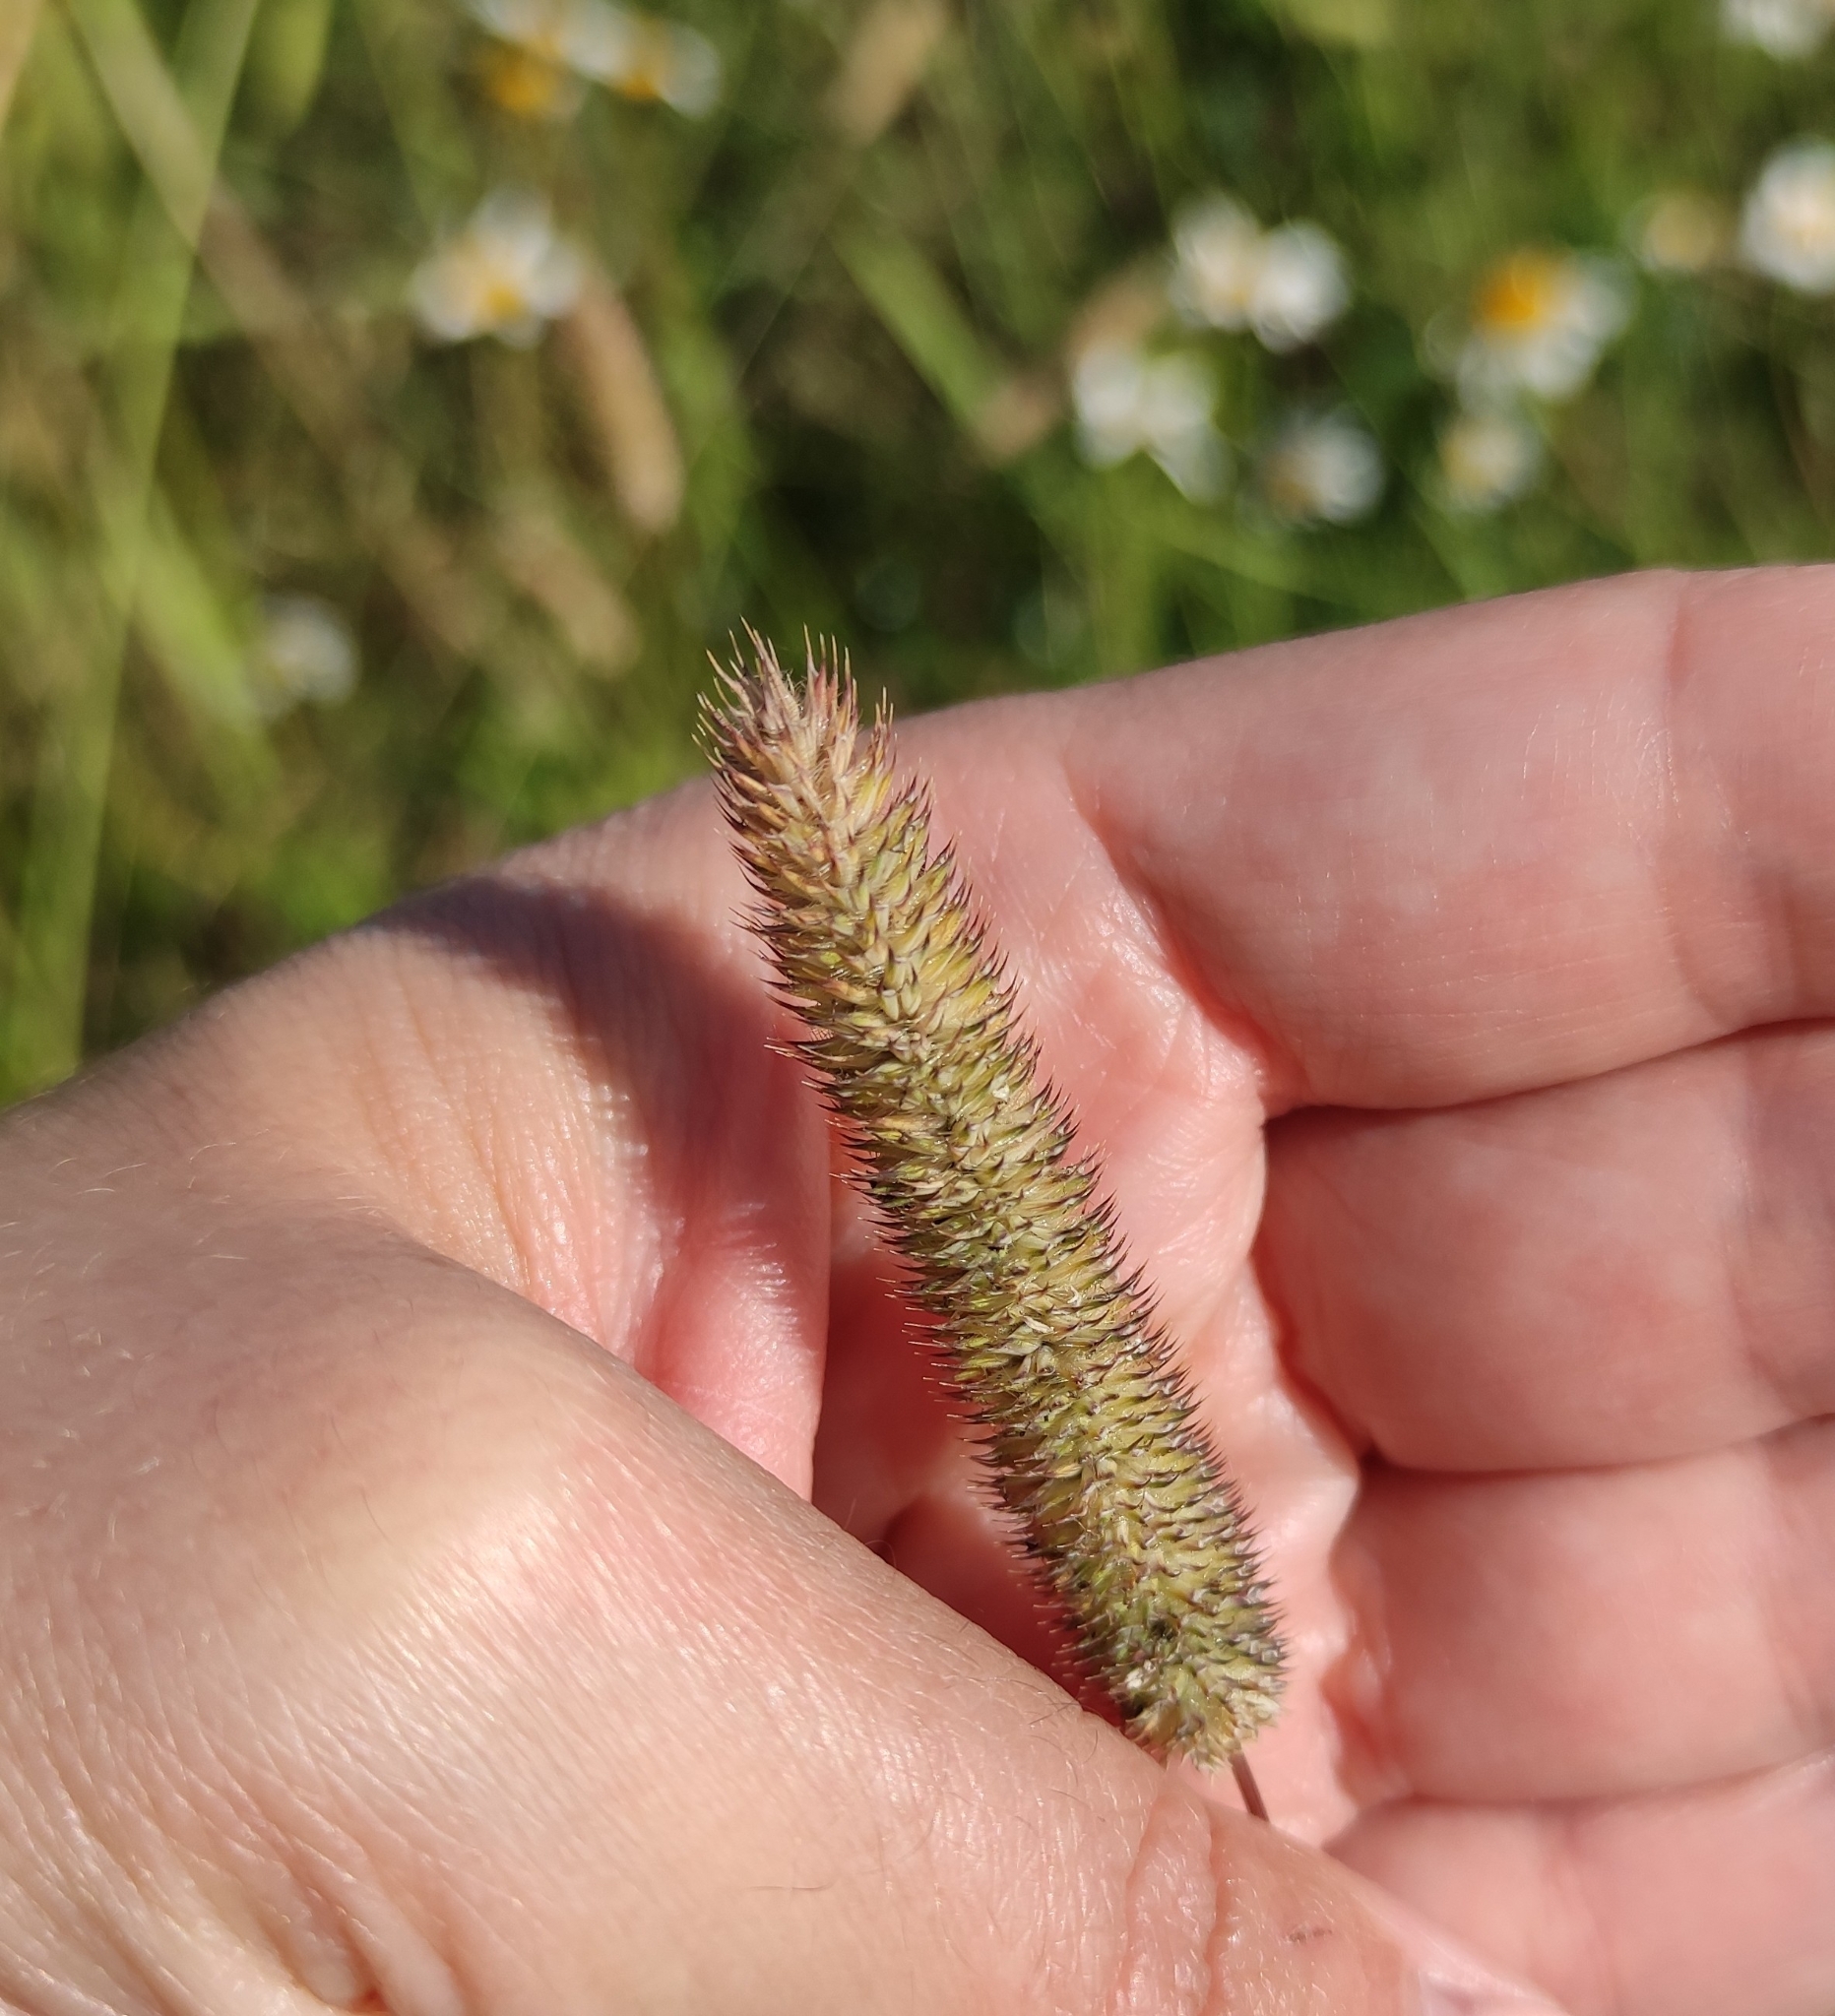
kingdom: Plantae
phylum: Tracheophyta
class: Liliopsida
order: Poales
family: Poaceae
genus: Phleum
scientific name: Phleum pratense
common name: Timothy grass
